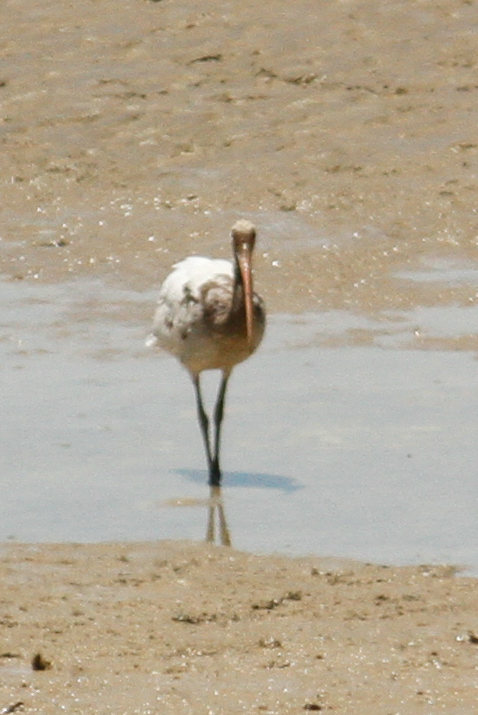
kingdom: Animalia
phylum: Chordata
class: Aves
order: Pelecaniformes
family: Threskiornithidae
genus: Eudocimus
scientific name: Eudocimus albus
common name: White ibis
